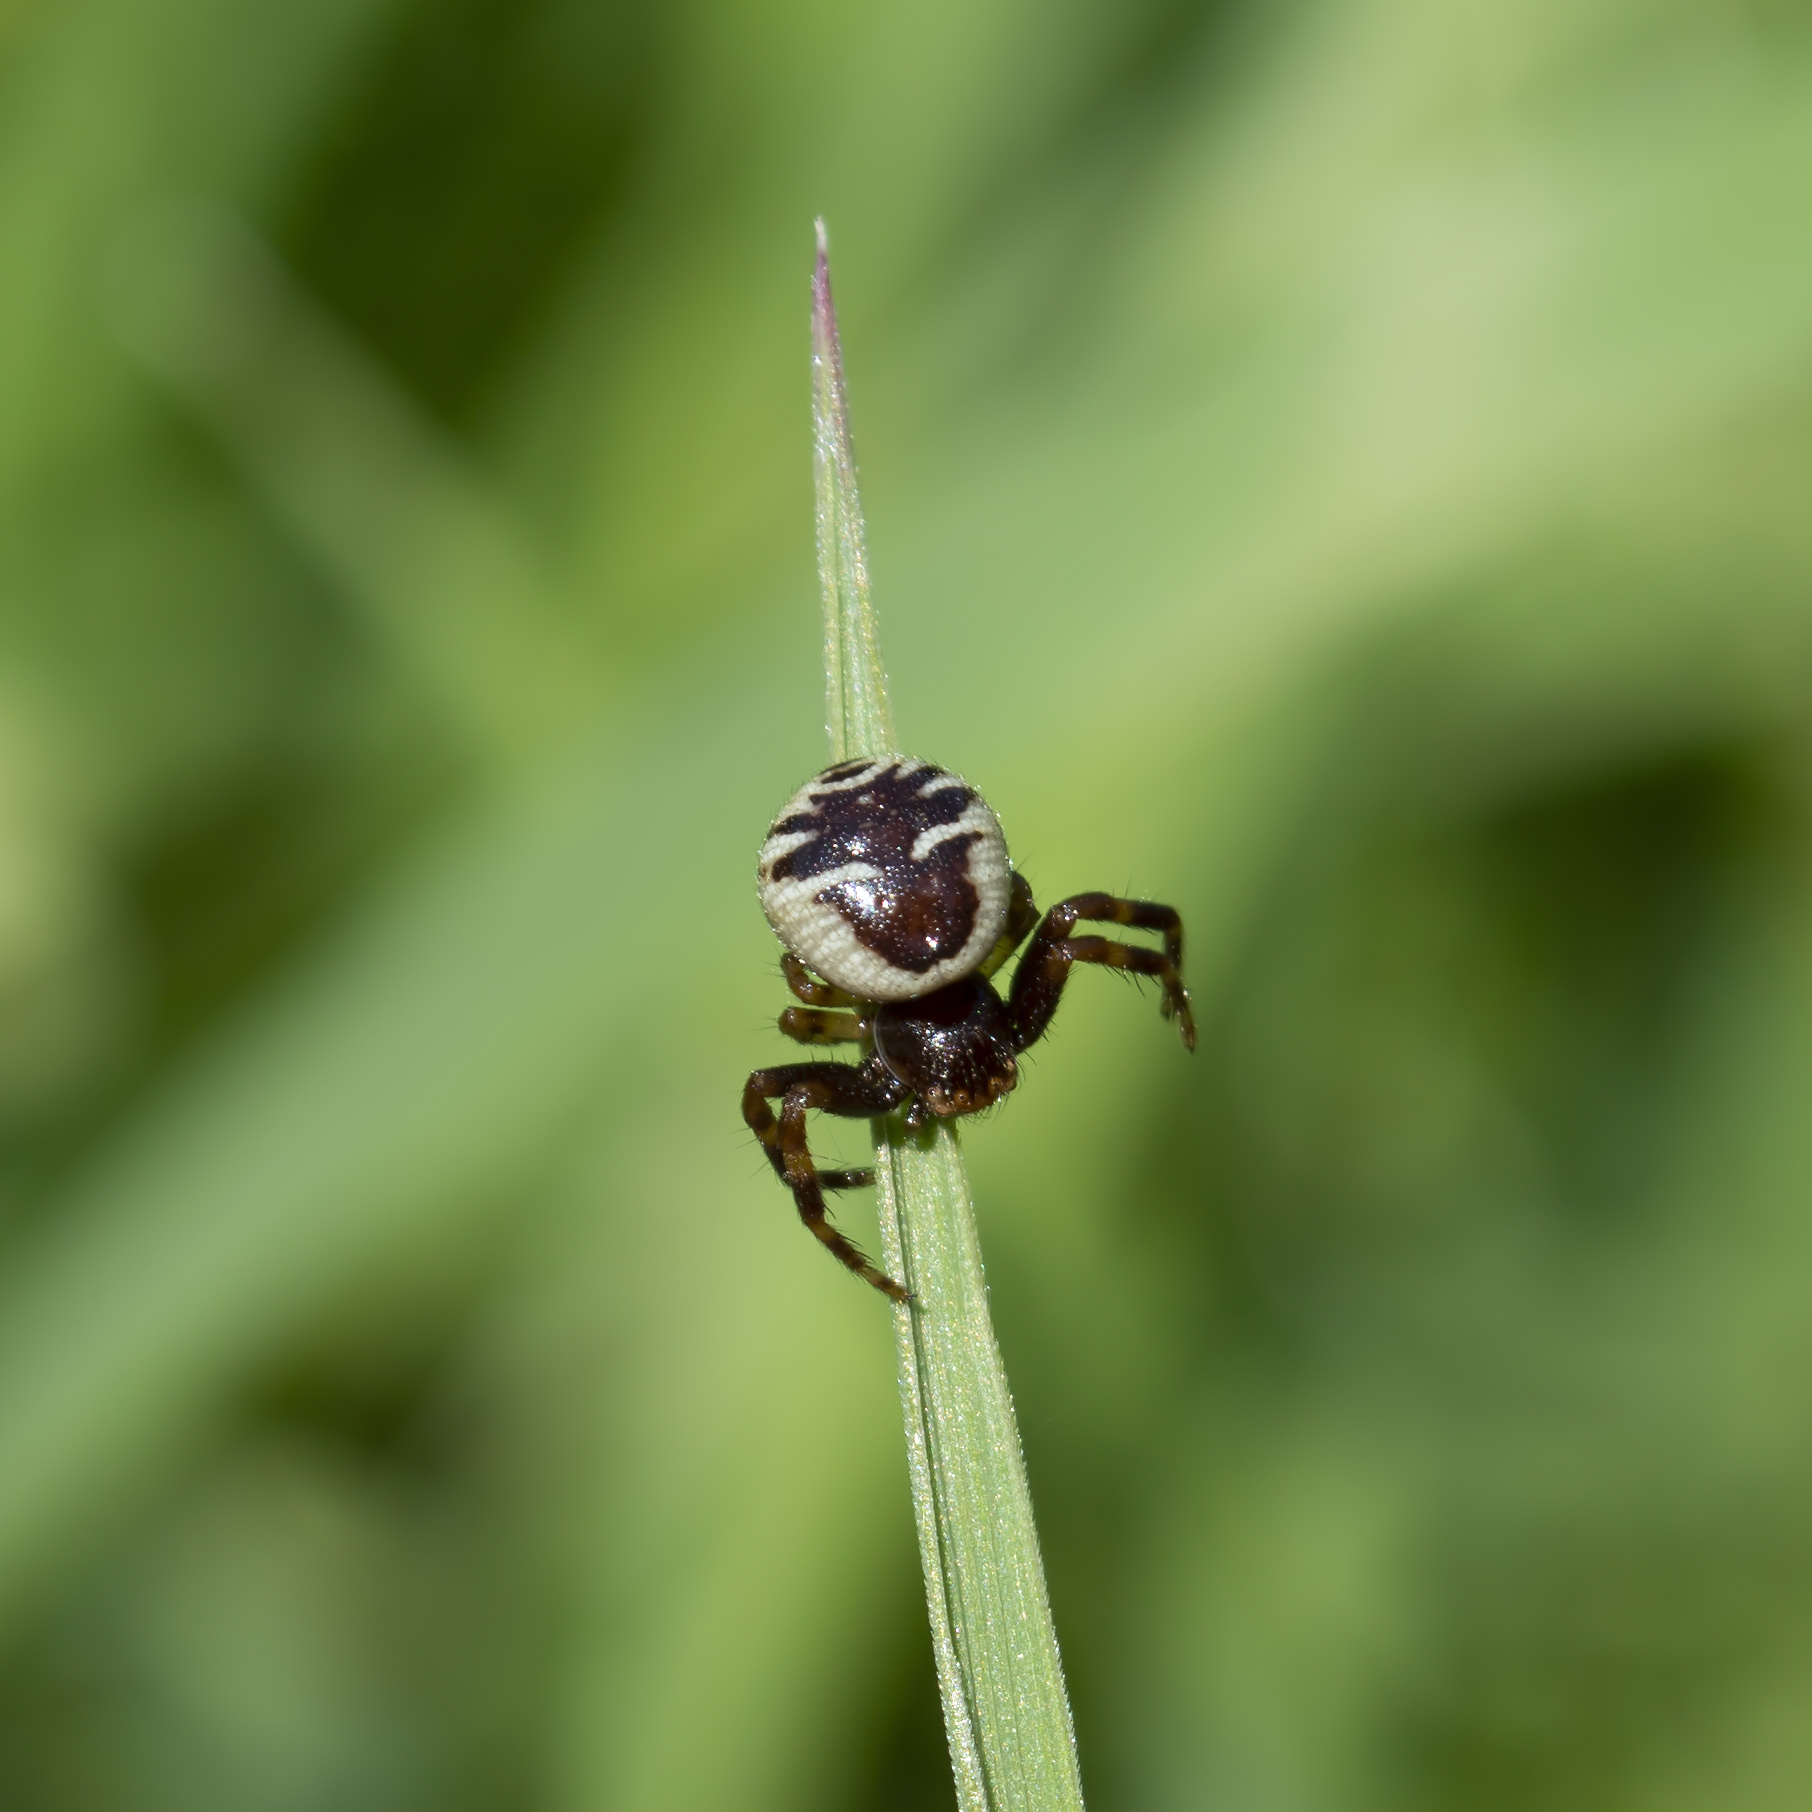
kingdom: Animalia
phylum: Arthropoda
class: Arachnida
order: Araneae
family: Thomisidae
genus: Synema
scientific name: Synema globosum
